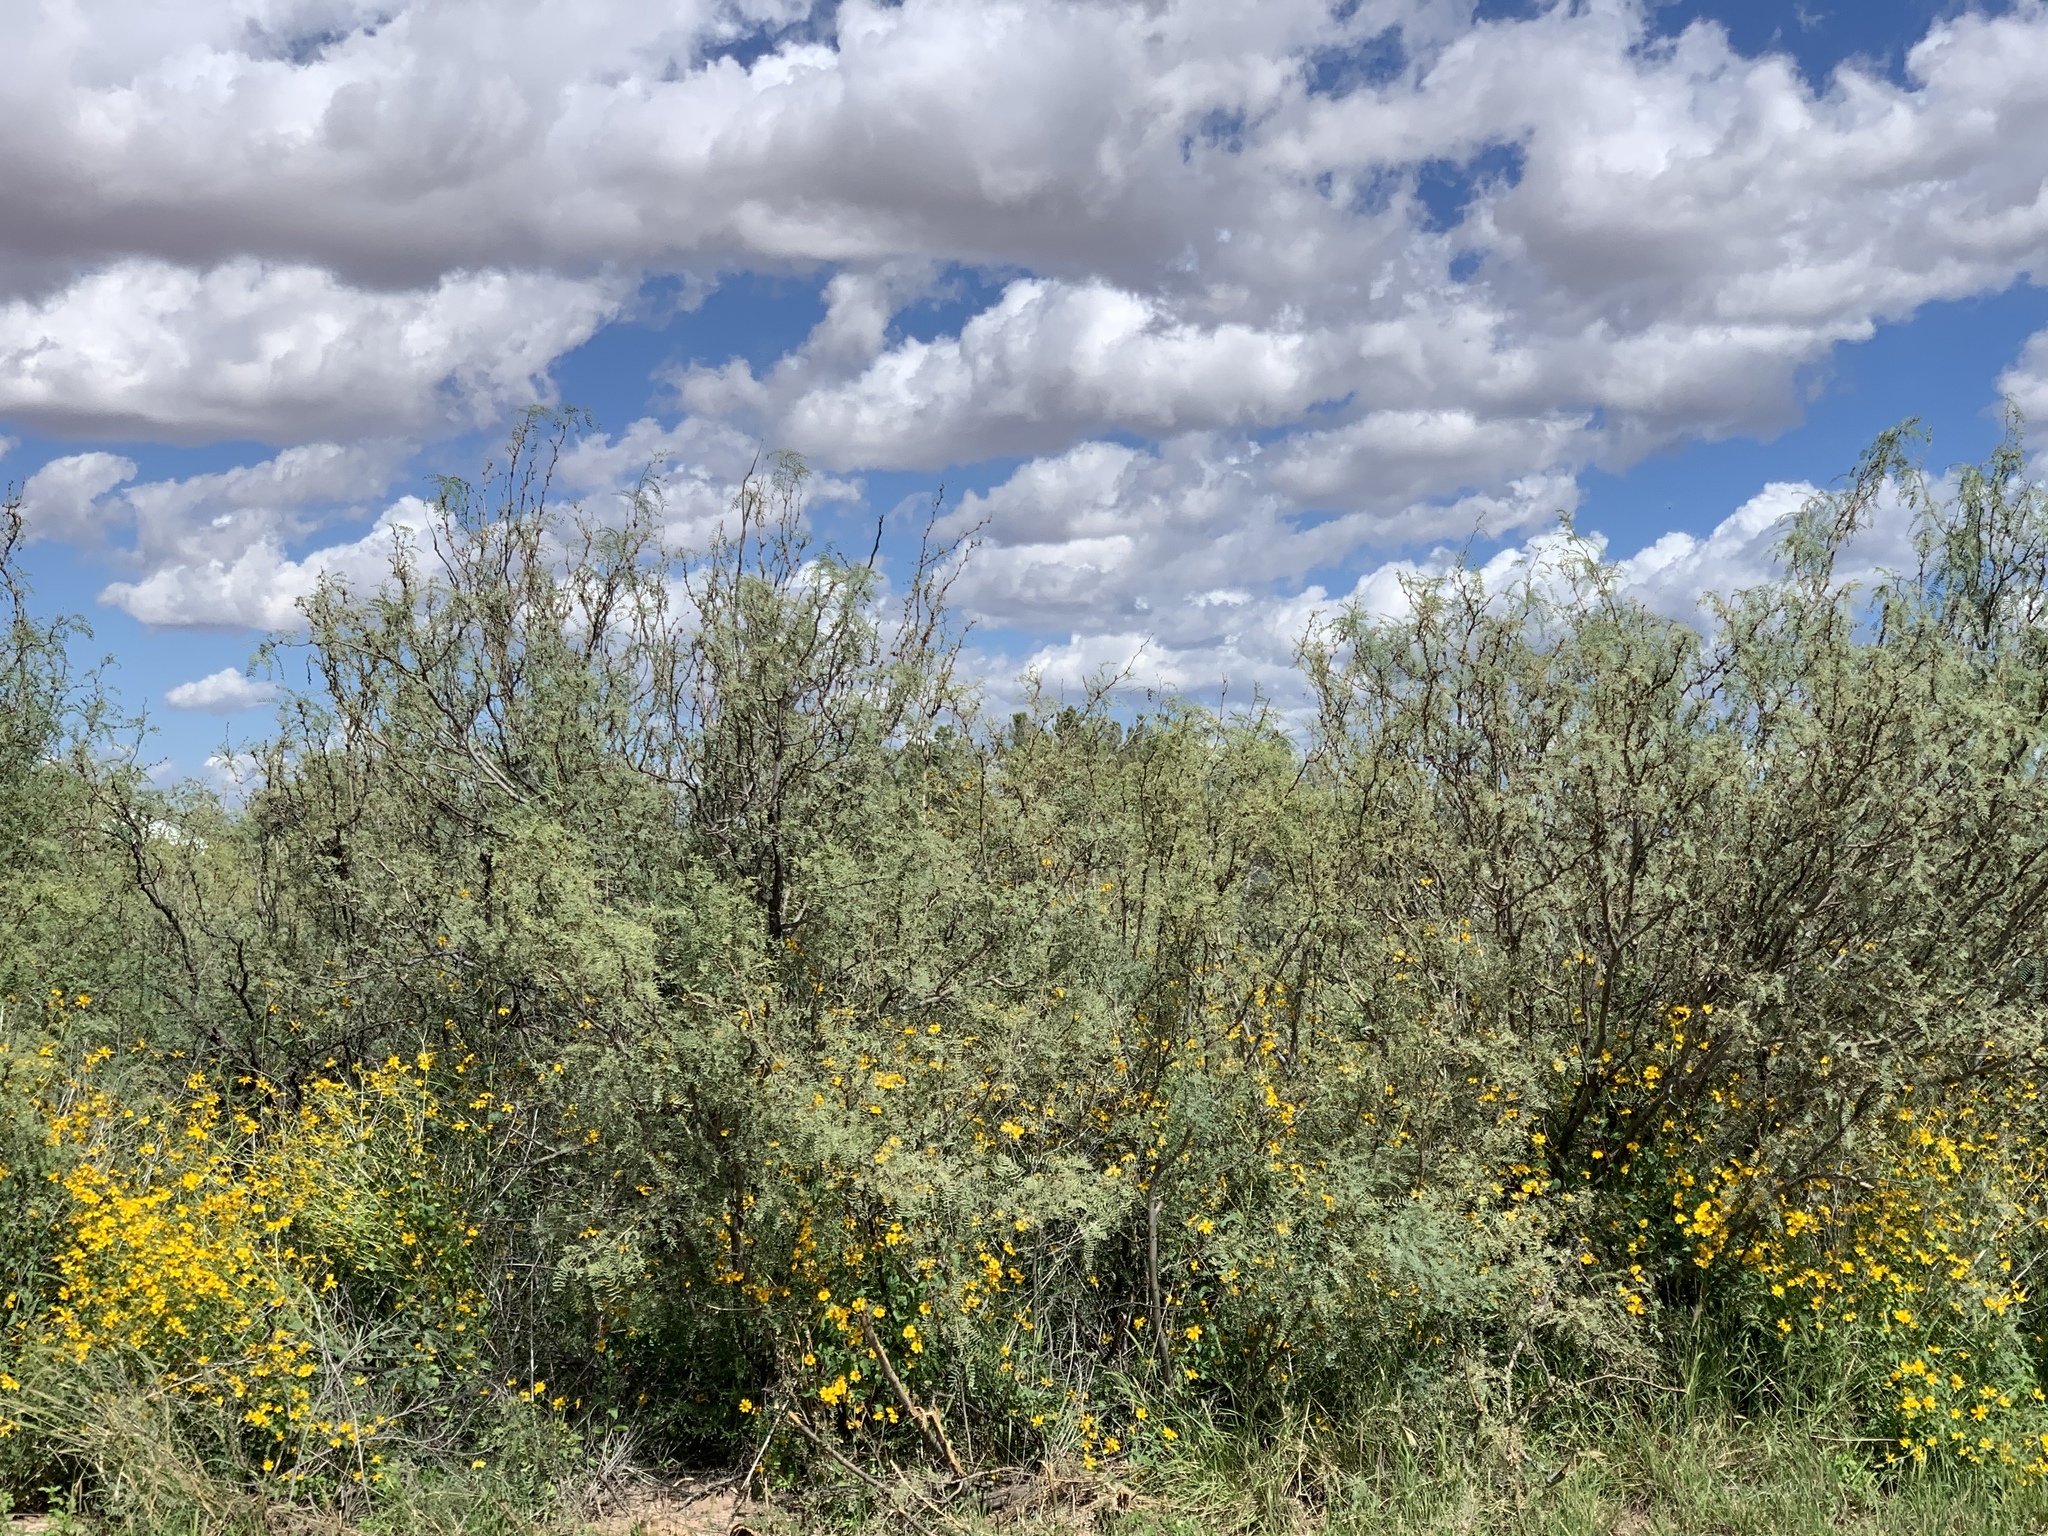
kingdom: Plantae
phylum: Tracheophyta
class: Magnoliopsida
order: Fabales
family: Fabaceae
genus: Prosopis
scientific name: Prosopis glandulosa
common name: Honey mesquite
